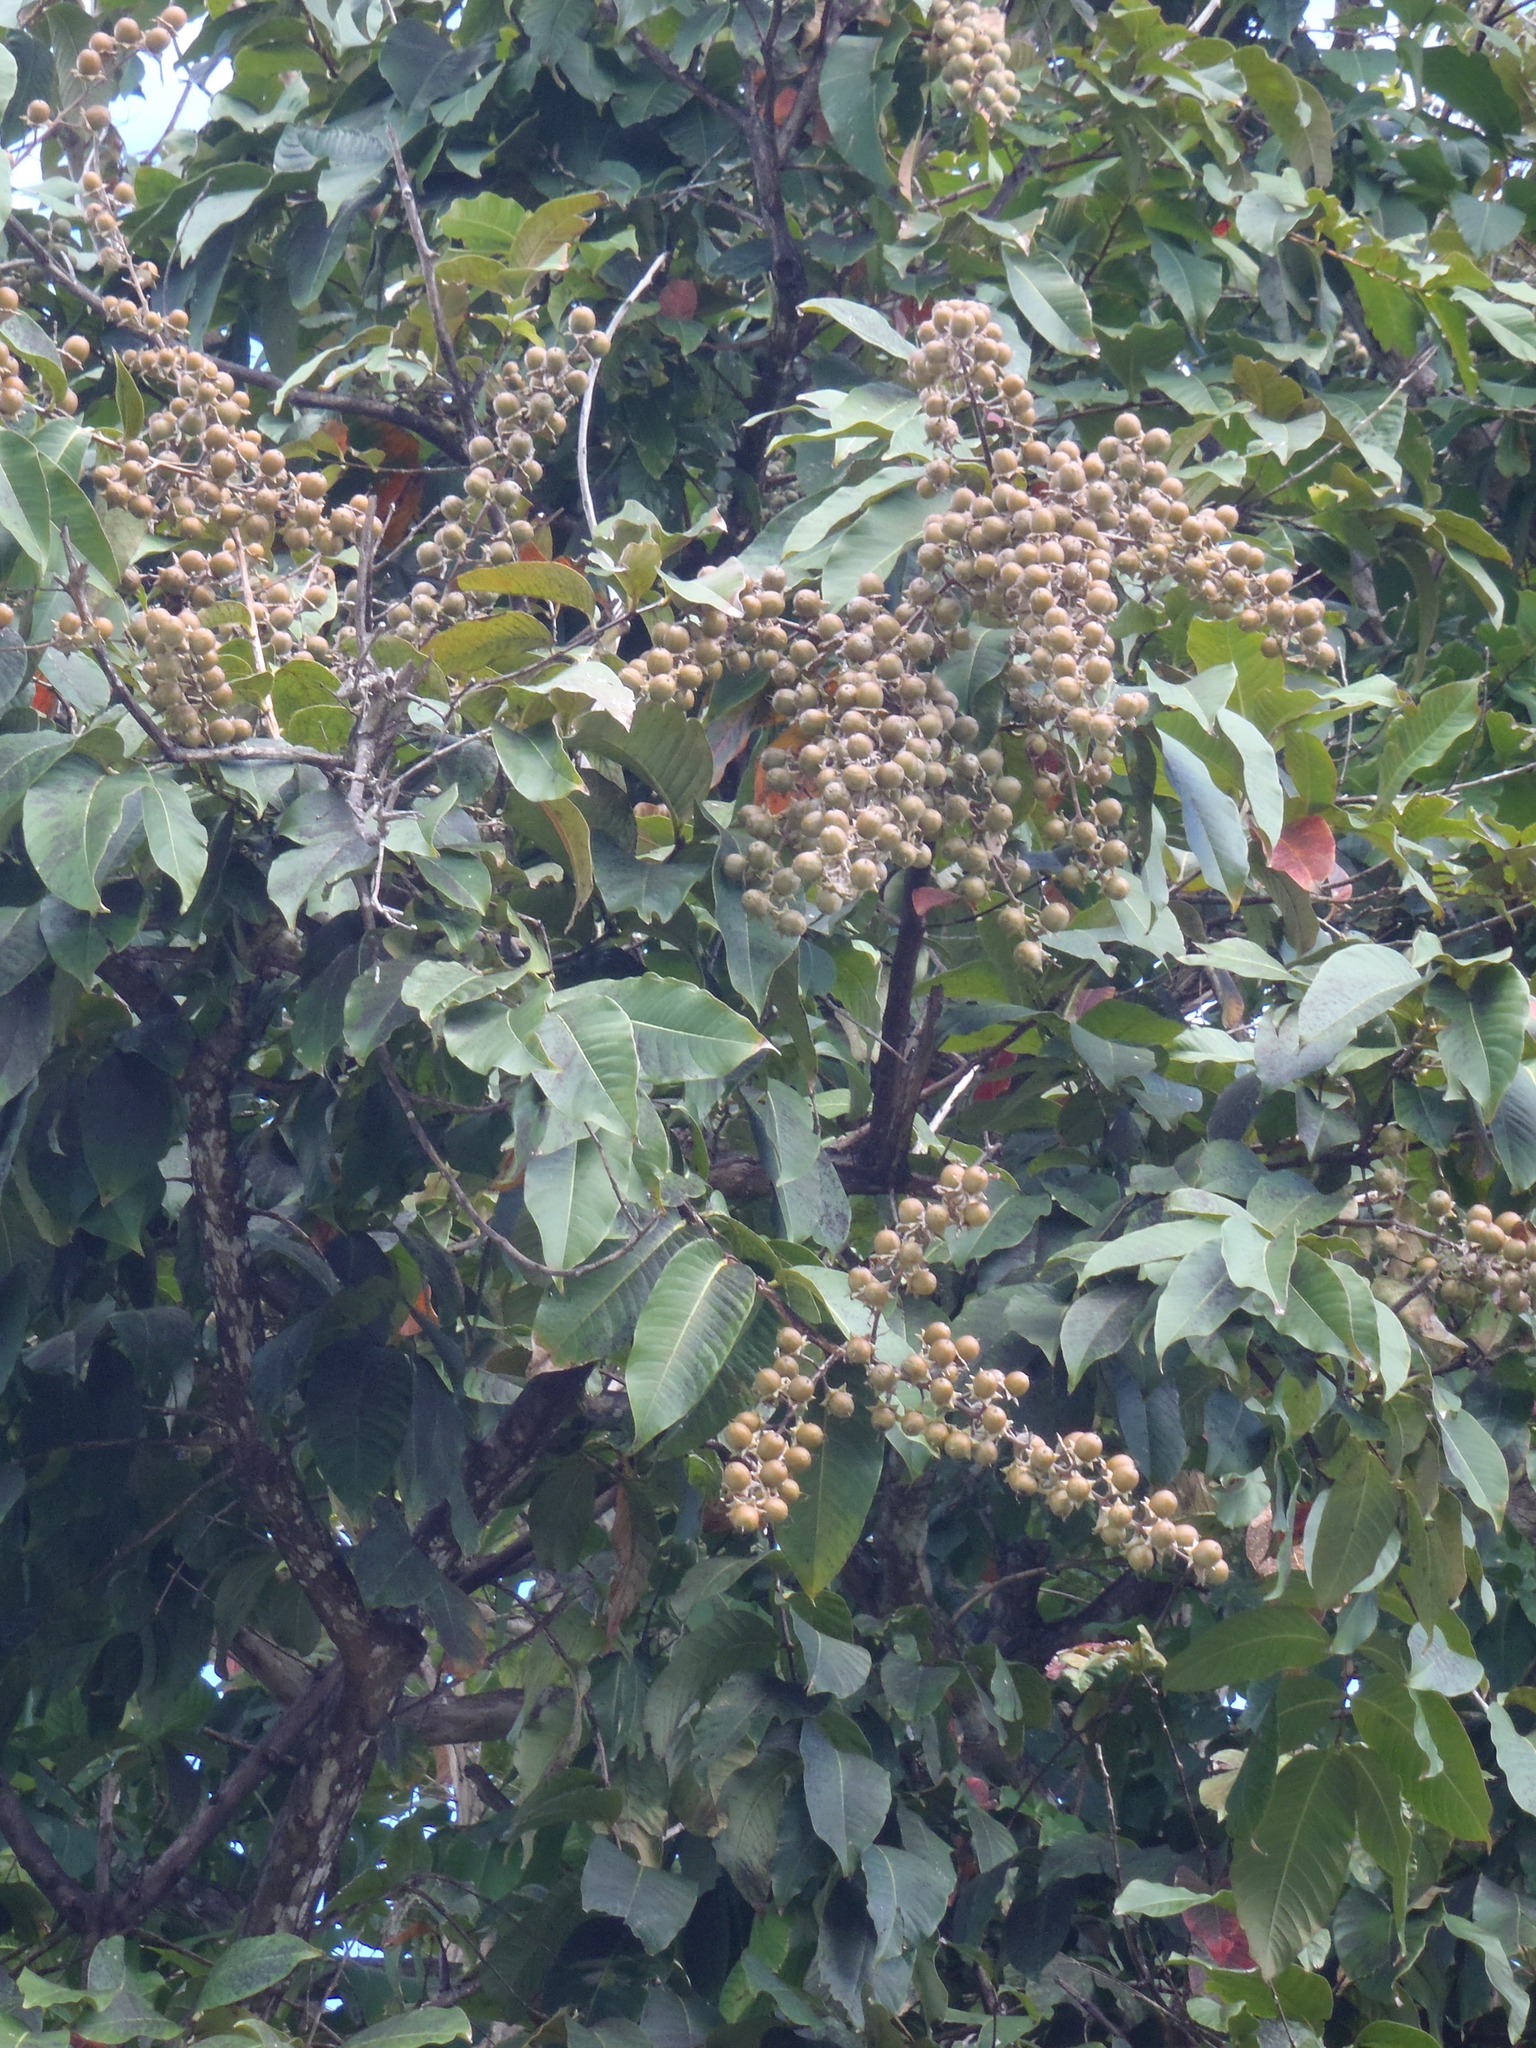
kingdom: Plantae
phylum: Tracheophyta
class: Magnoliopsida
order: Myrtales
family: Lythraceae
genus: Lagerstroemia
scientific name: Lagerstroemia speciosa
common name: Queen's crape-myrtle
